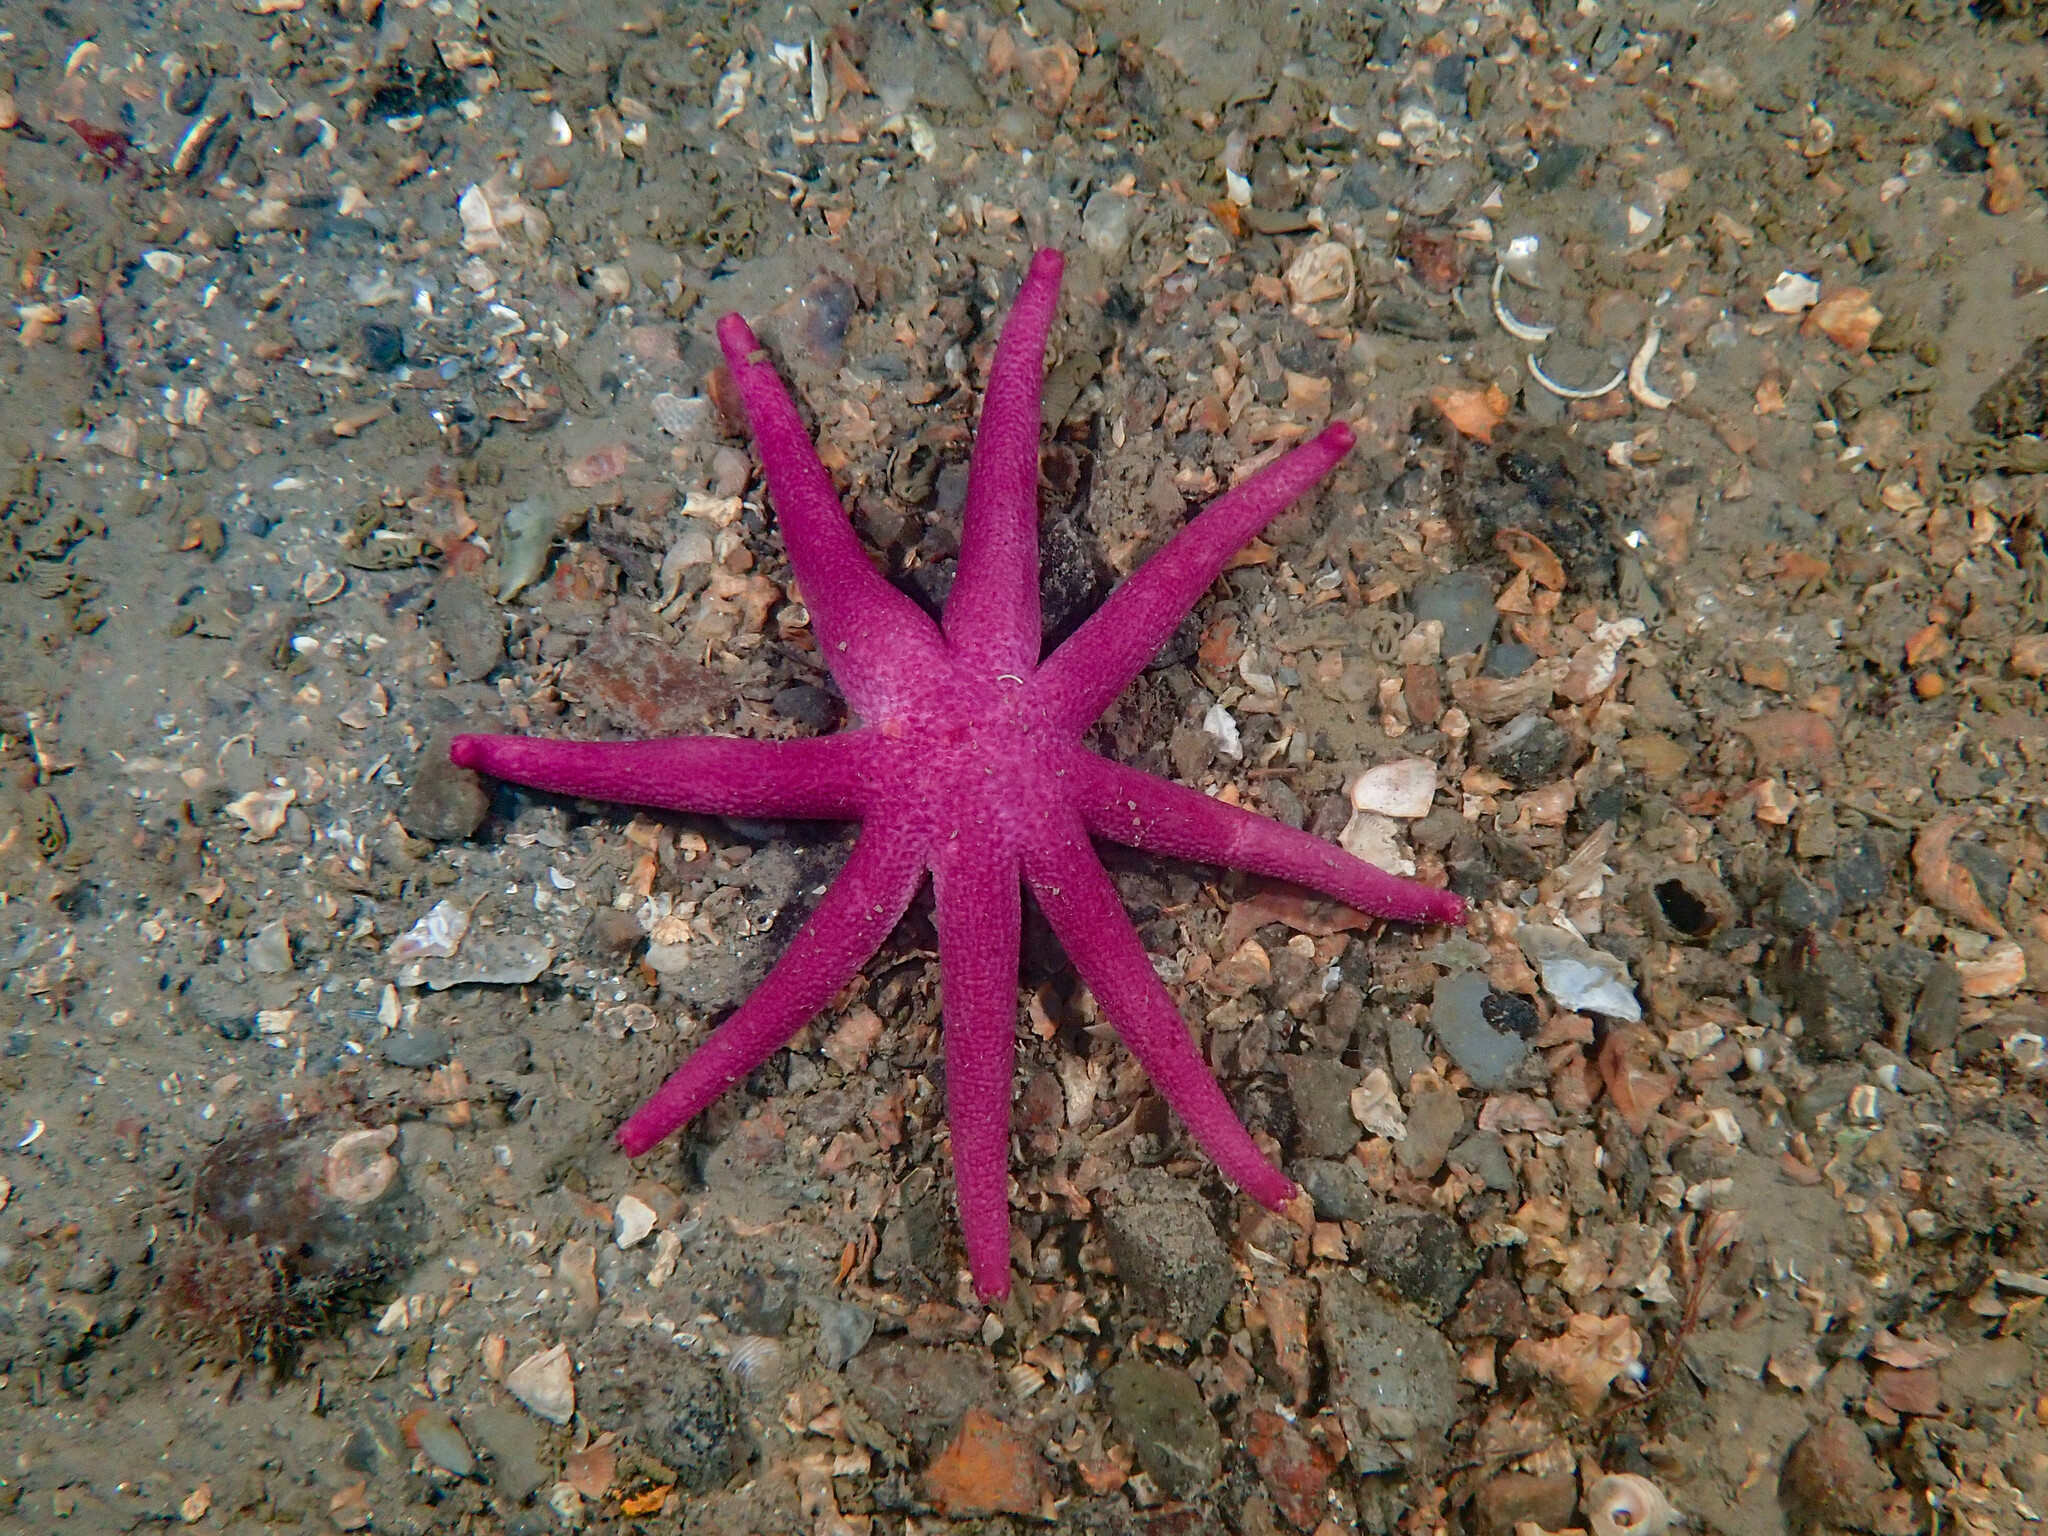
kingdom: Animalia
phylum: Echinodermata
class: Asteroidea
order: Spinulosida
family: Echinasteridae
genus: Henricia
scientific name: Henricia oculata
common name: Bloody henry starfish
